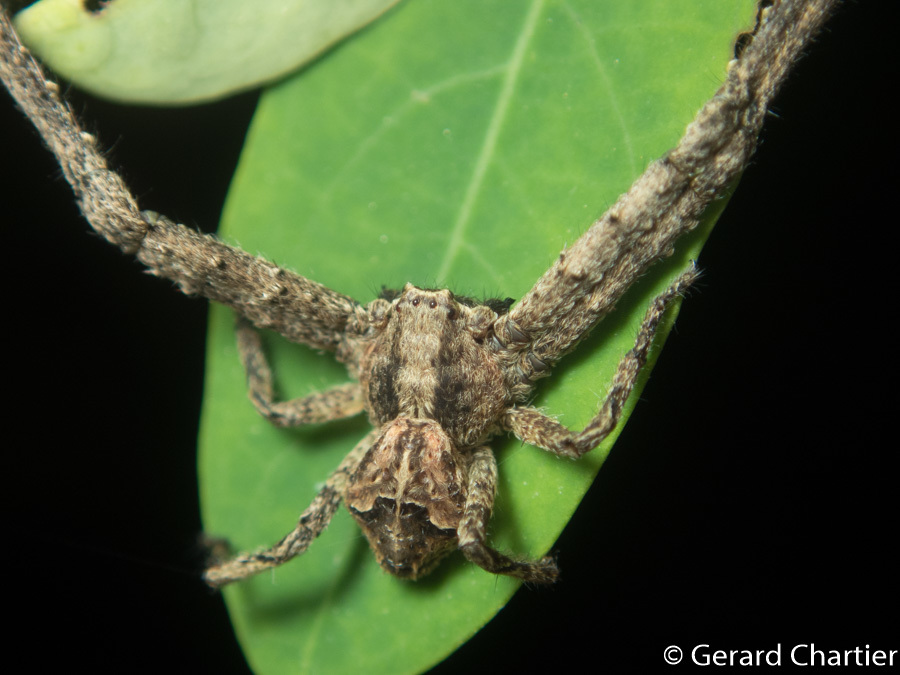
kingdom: Animalia
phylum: Arthropoda
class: Arachnida
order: Araneae
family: Thomisidae
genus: Angaeus
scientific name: Angaeus rhombifer
